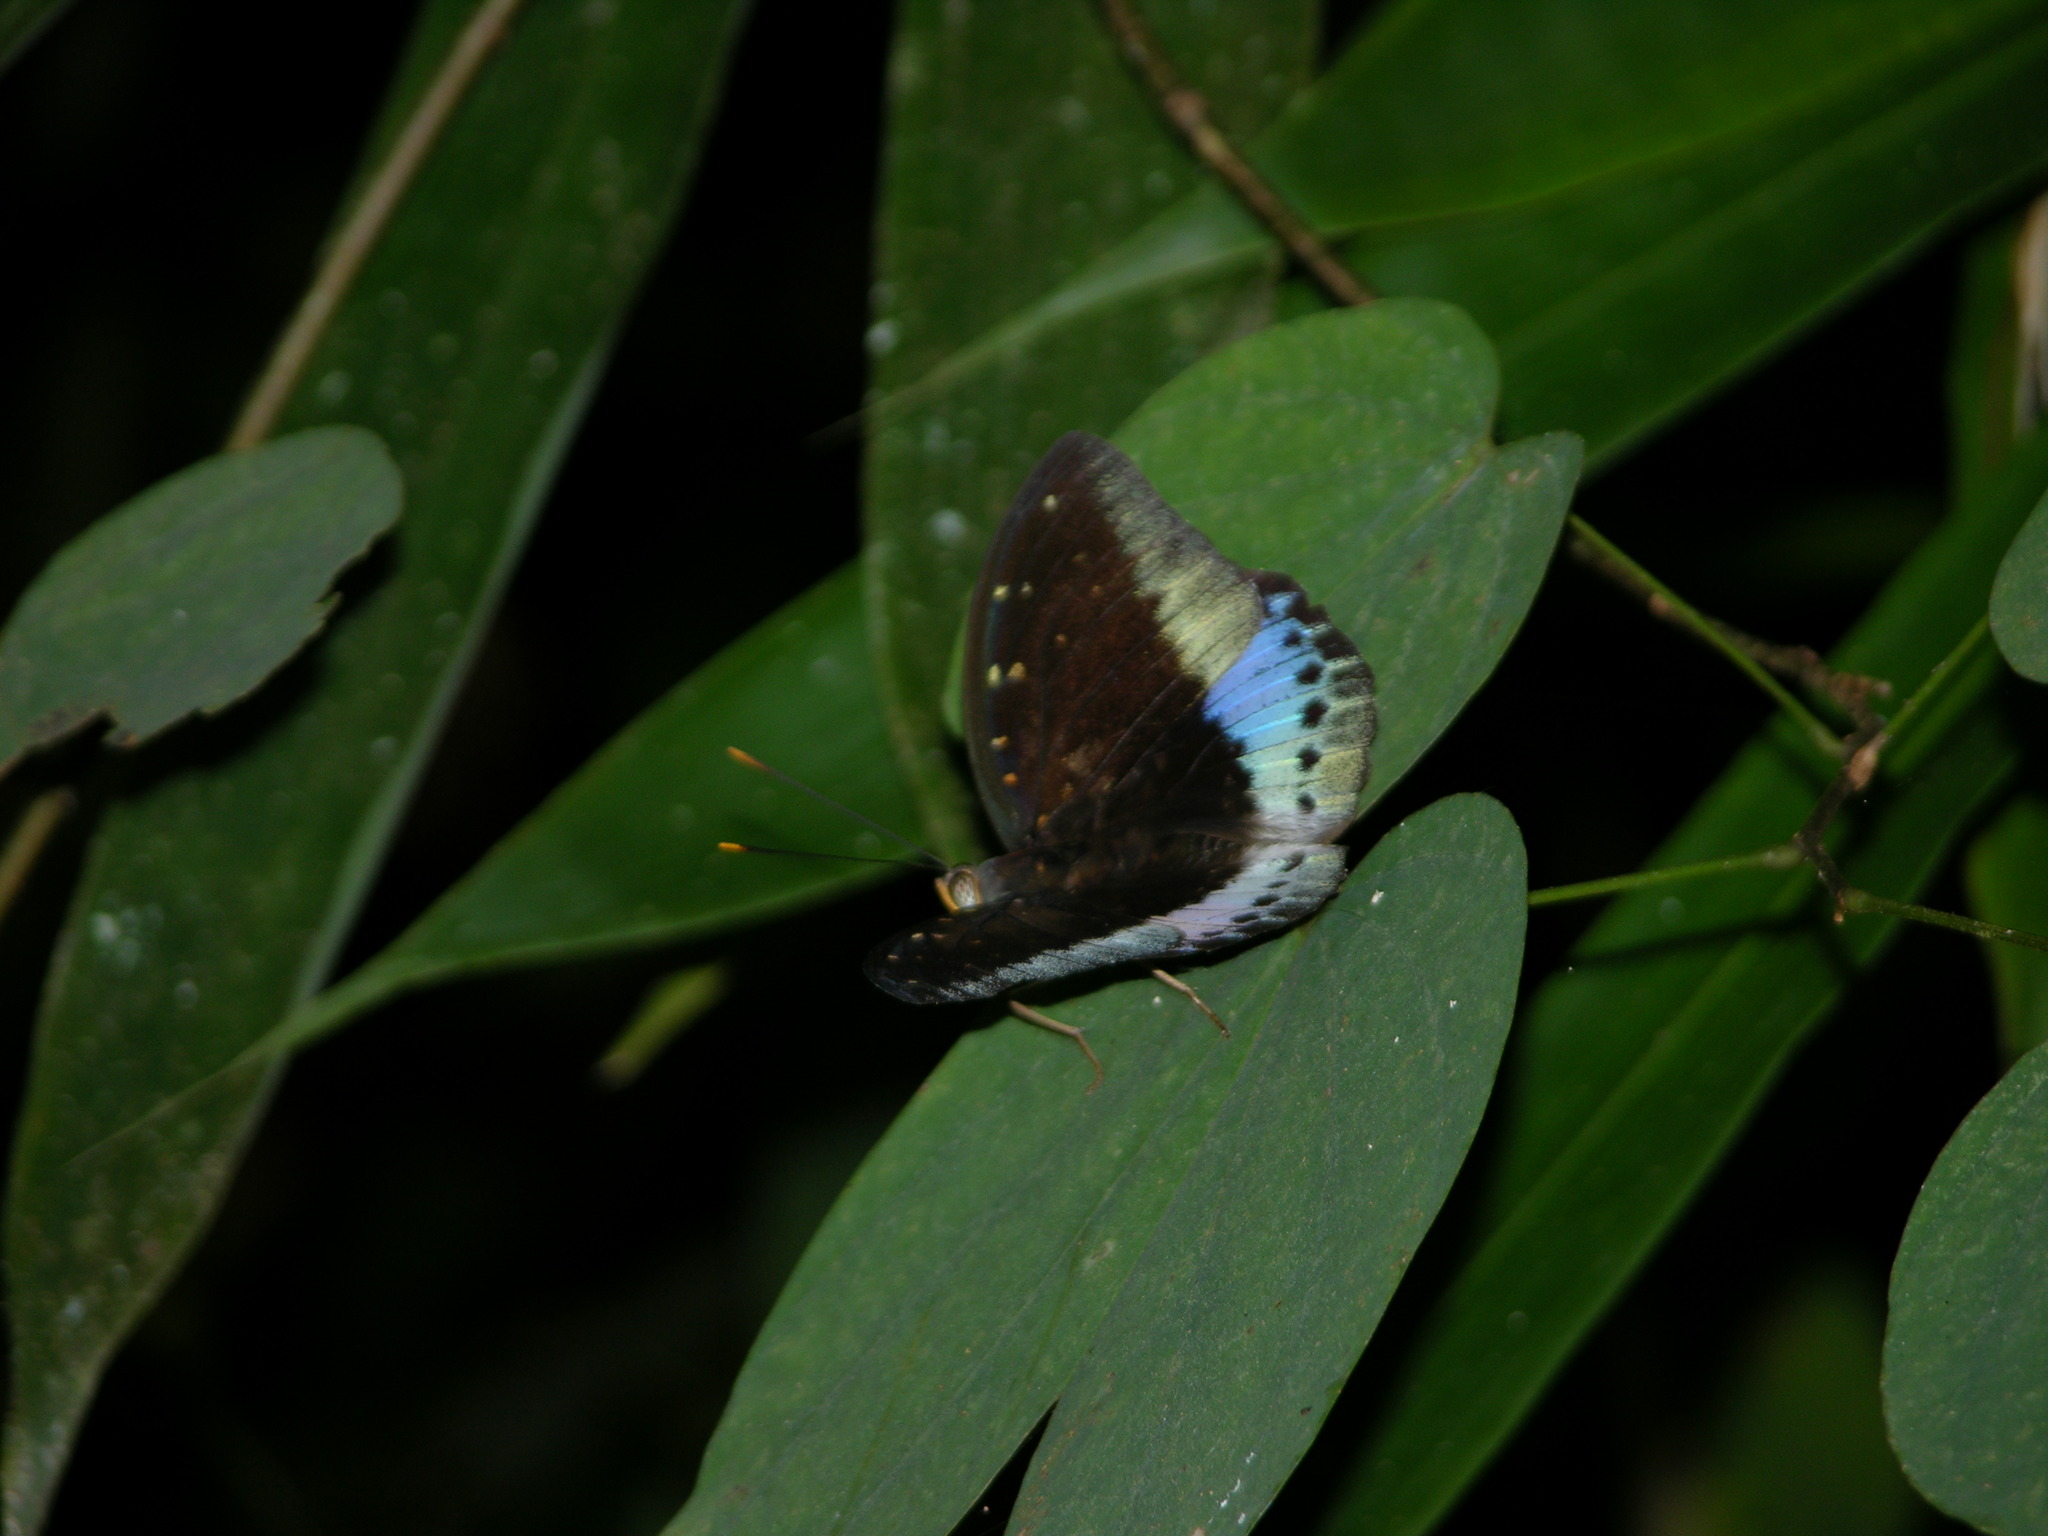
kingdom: Animalia
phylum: Arthropoda
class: Insecta
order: Lepidoptera
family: Nymphalidae
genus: Lexias
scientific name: Lexias pardalis
